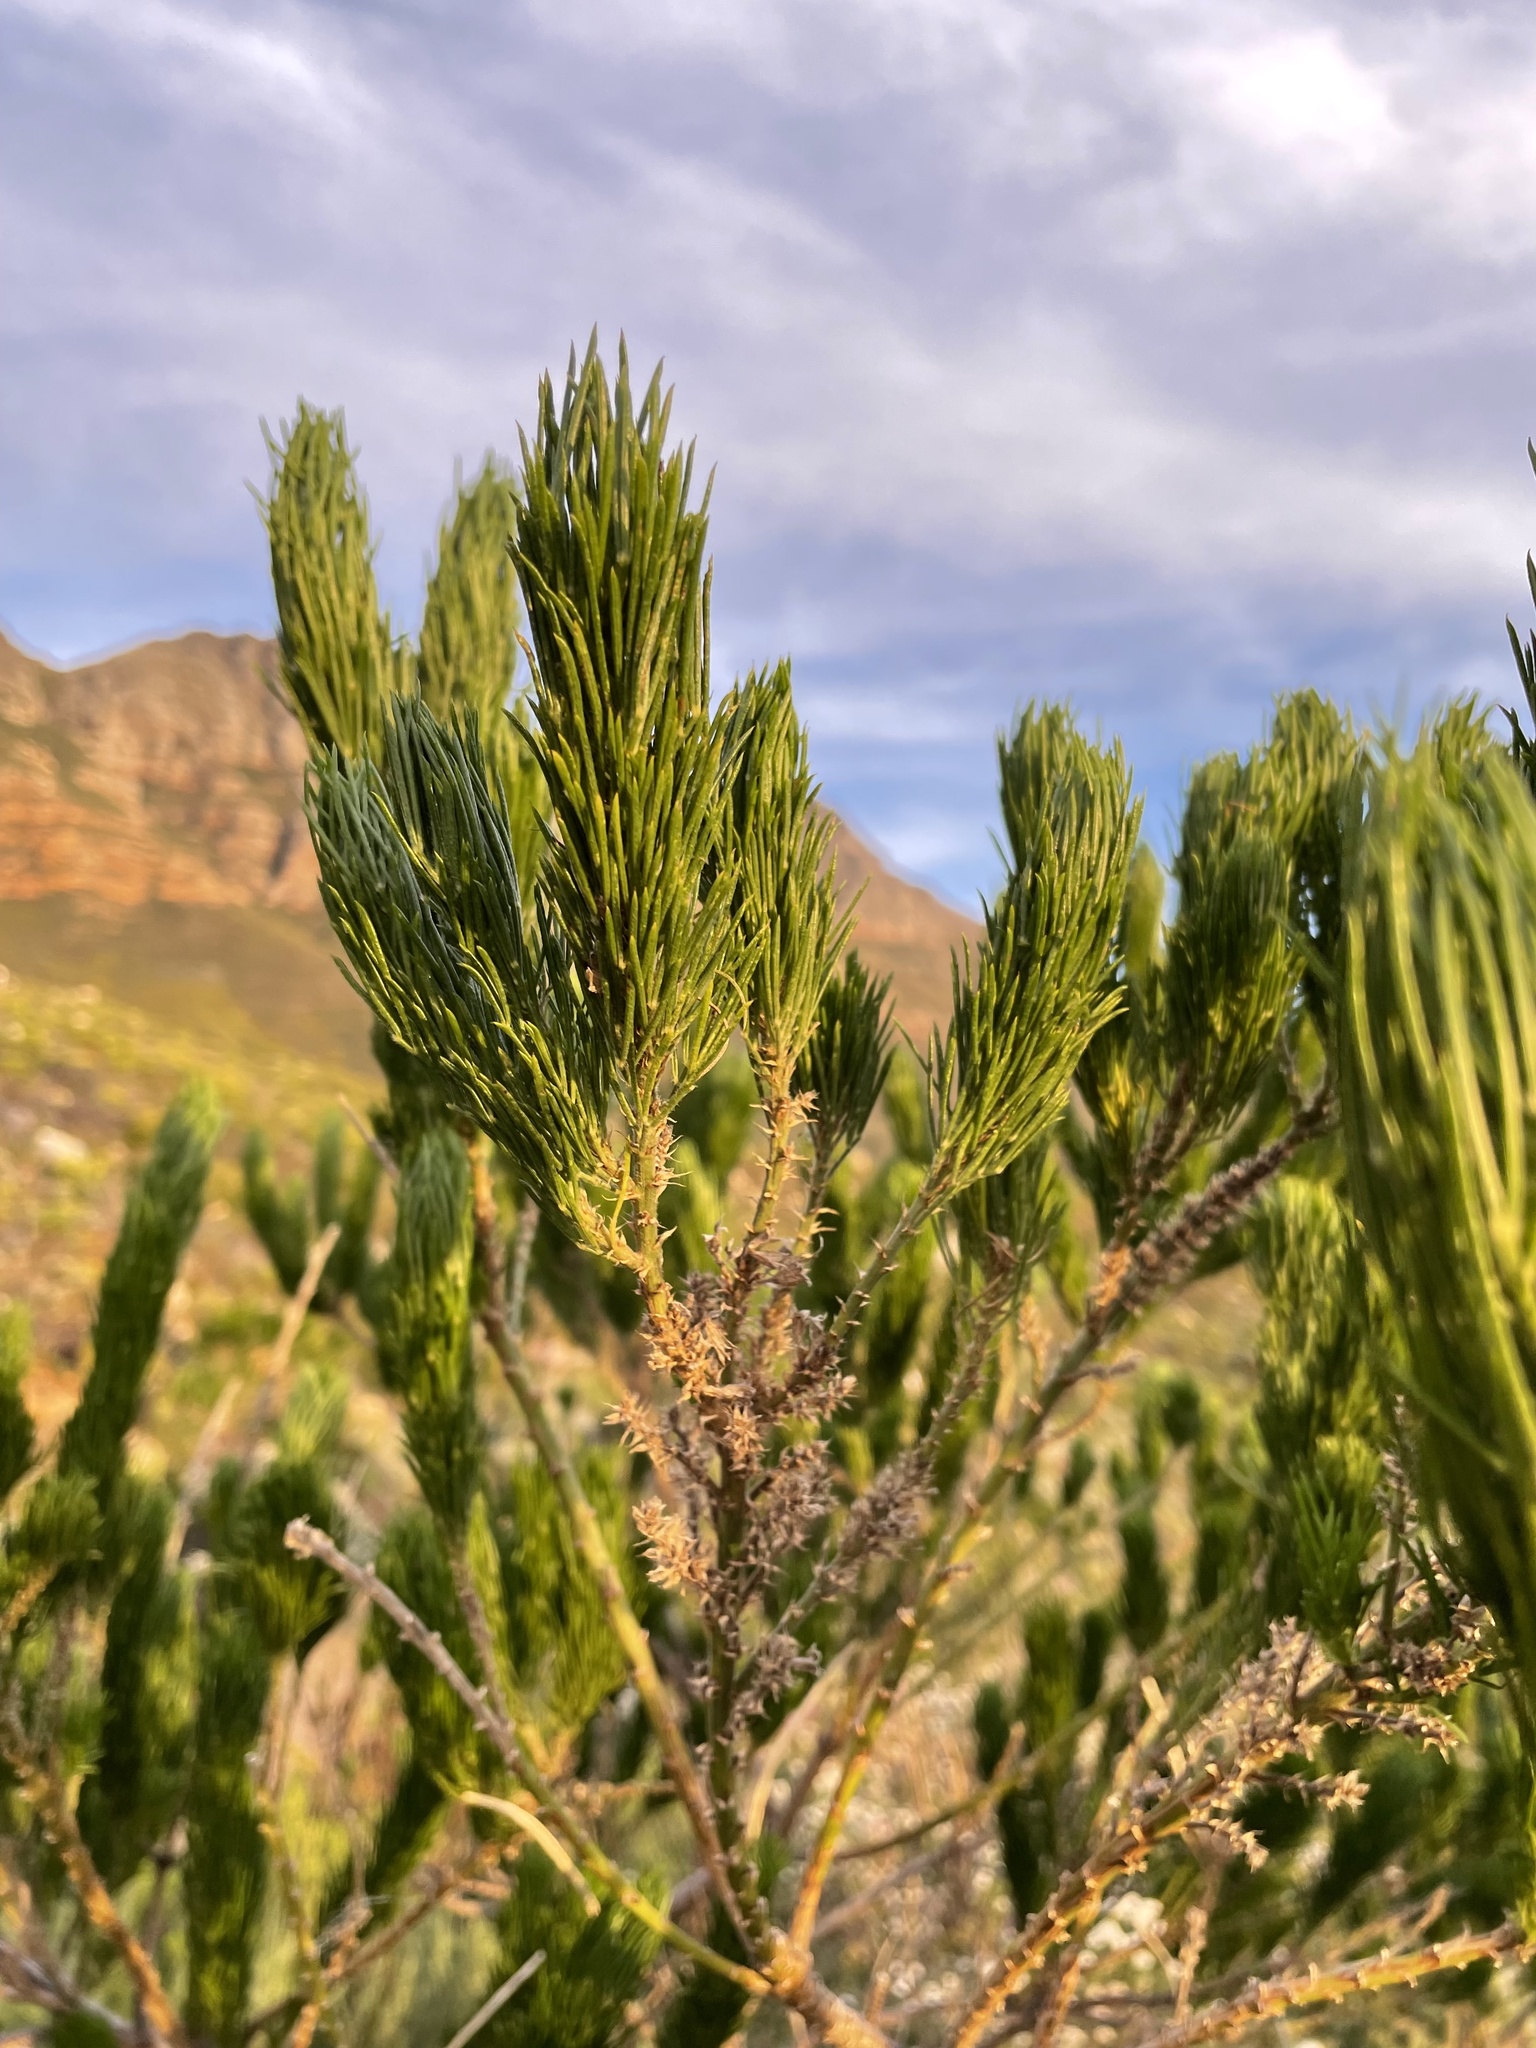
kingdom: Plantae
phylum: Tracheophyta
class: Magnoliopsida
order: Fabales
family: Fabaceae
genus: Psoralea
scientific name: Psoralea pinnata
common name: African scurfpea
